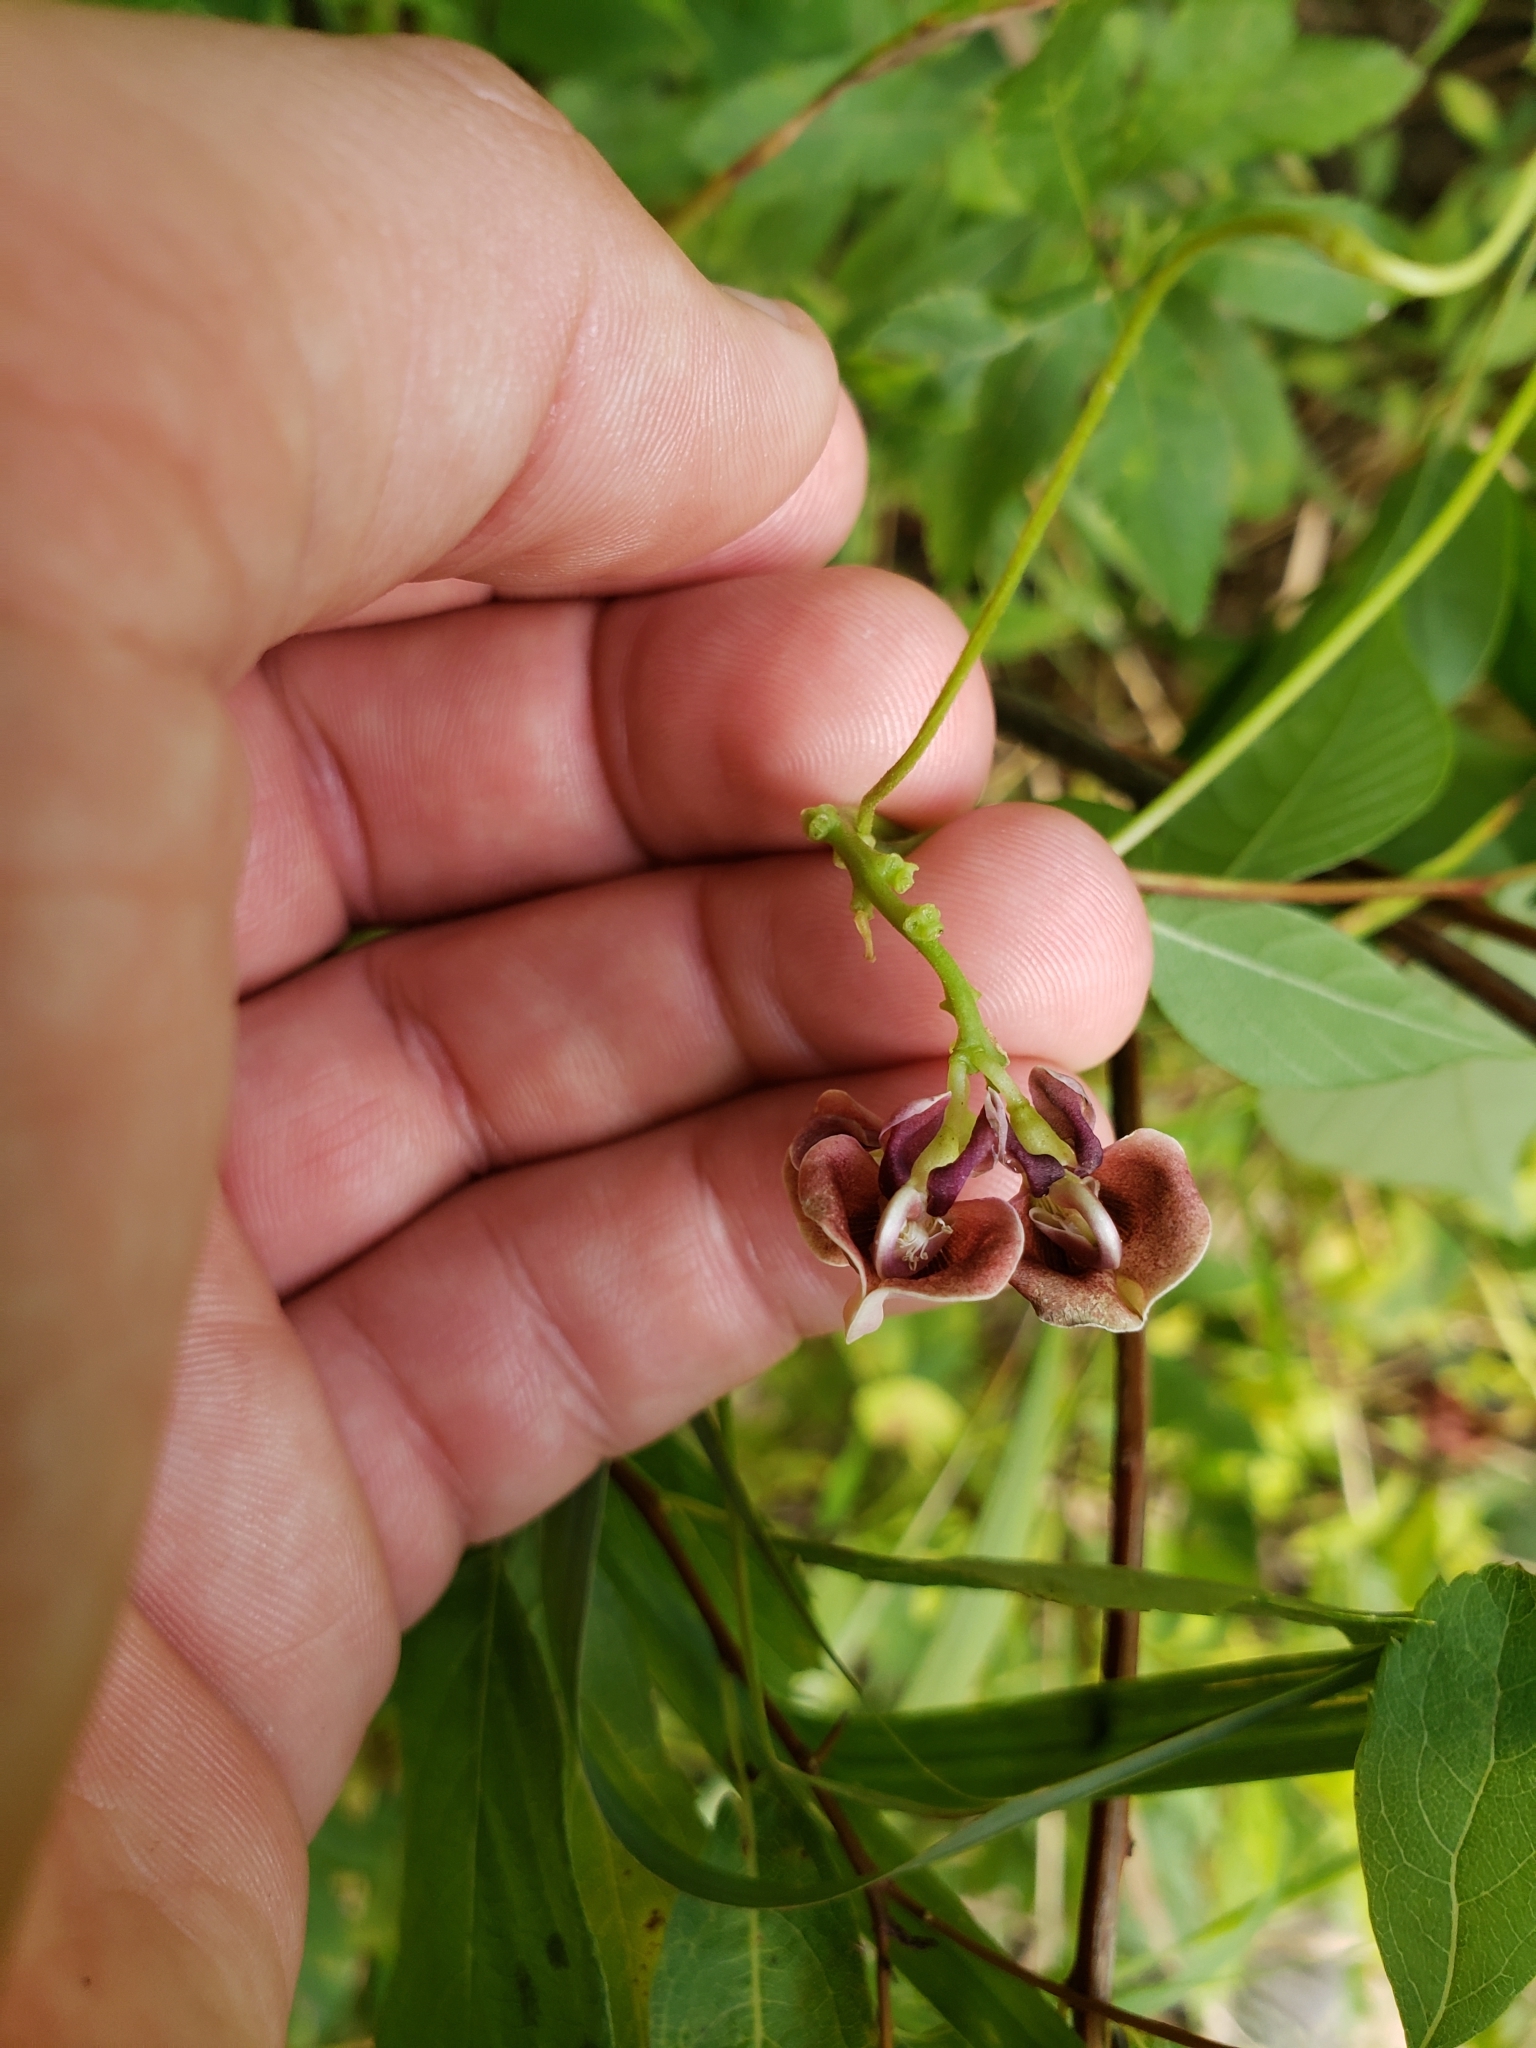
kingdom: Plantae
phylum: Tracheophyta
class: Magnoliopsida
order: Fabales
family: Fabaceae
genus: Apios
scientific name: Apios americana
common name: American potato-bean
